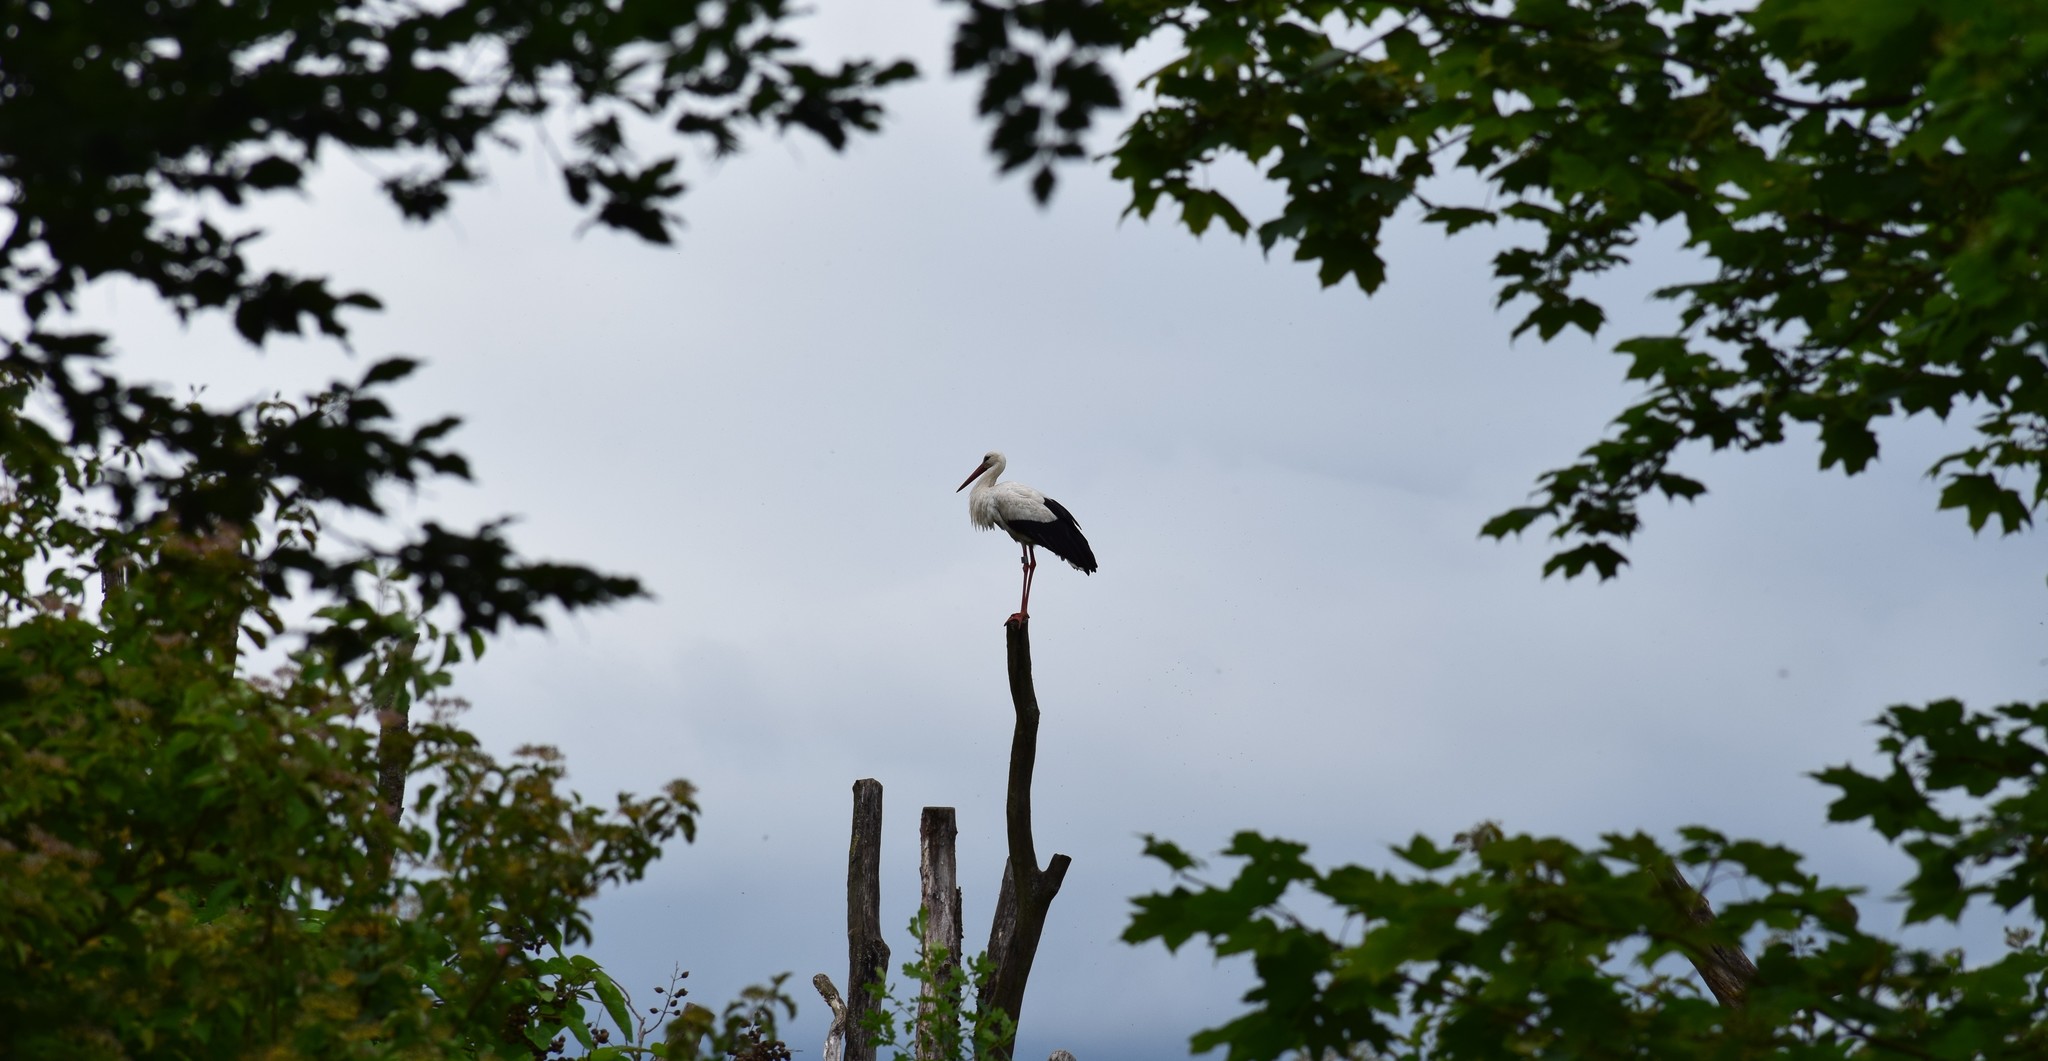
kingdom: Animalia
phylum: Chordata
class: Aves
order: Ciconiiformes
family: Ciconiidae
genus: Ciconia
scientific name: Ciconia ciconia
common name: White stork
